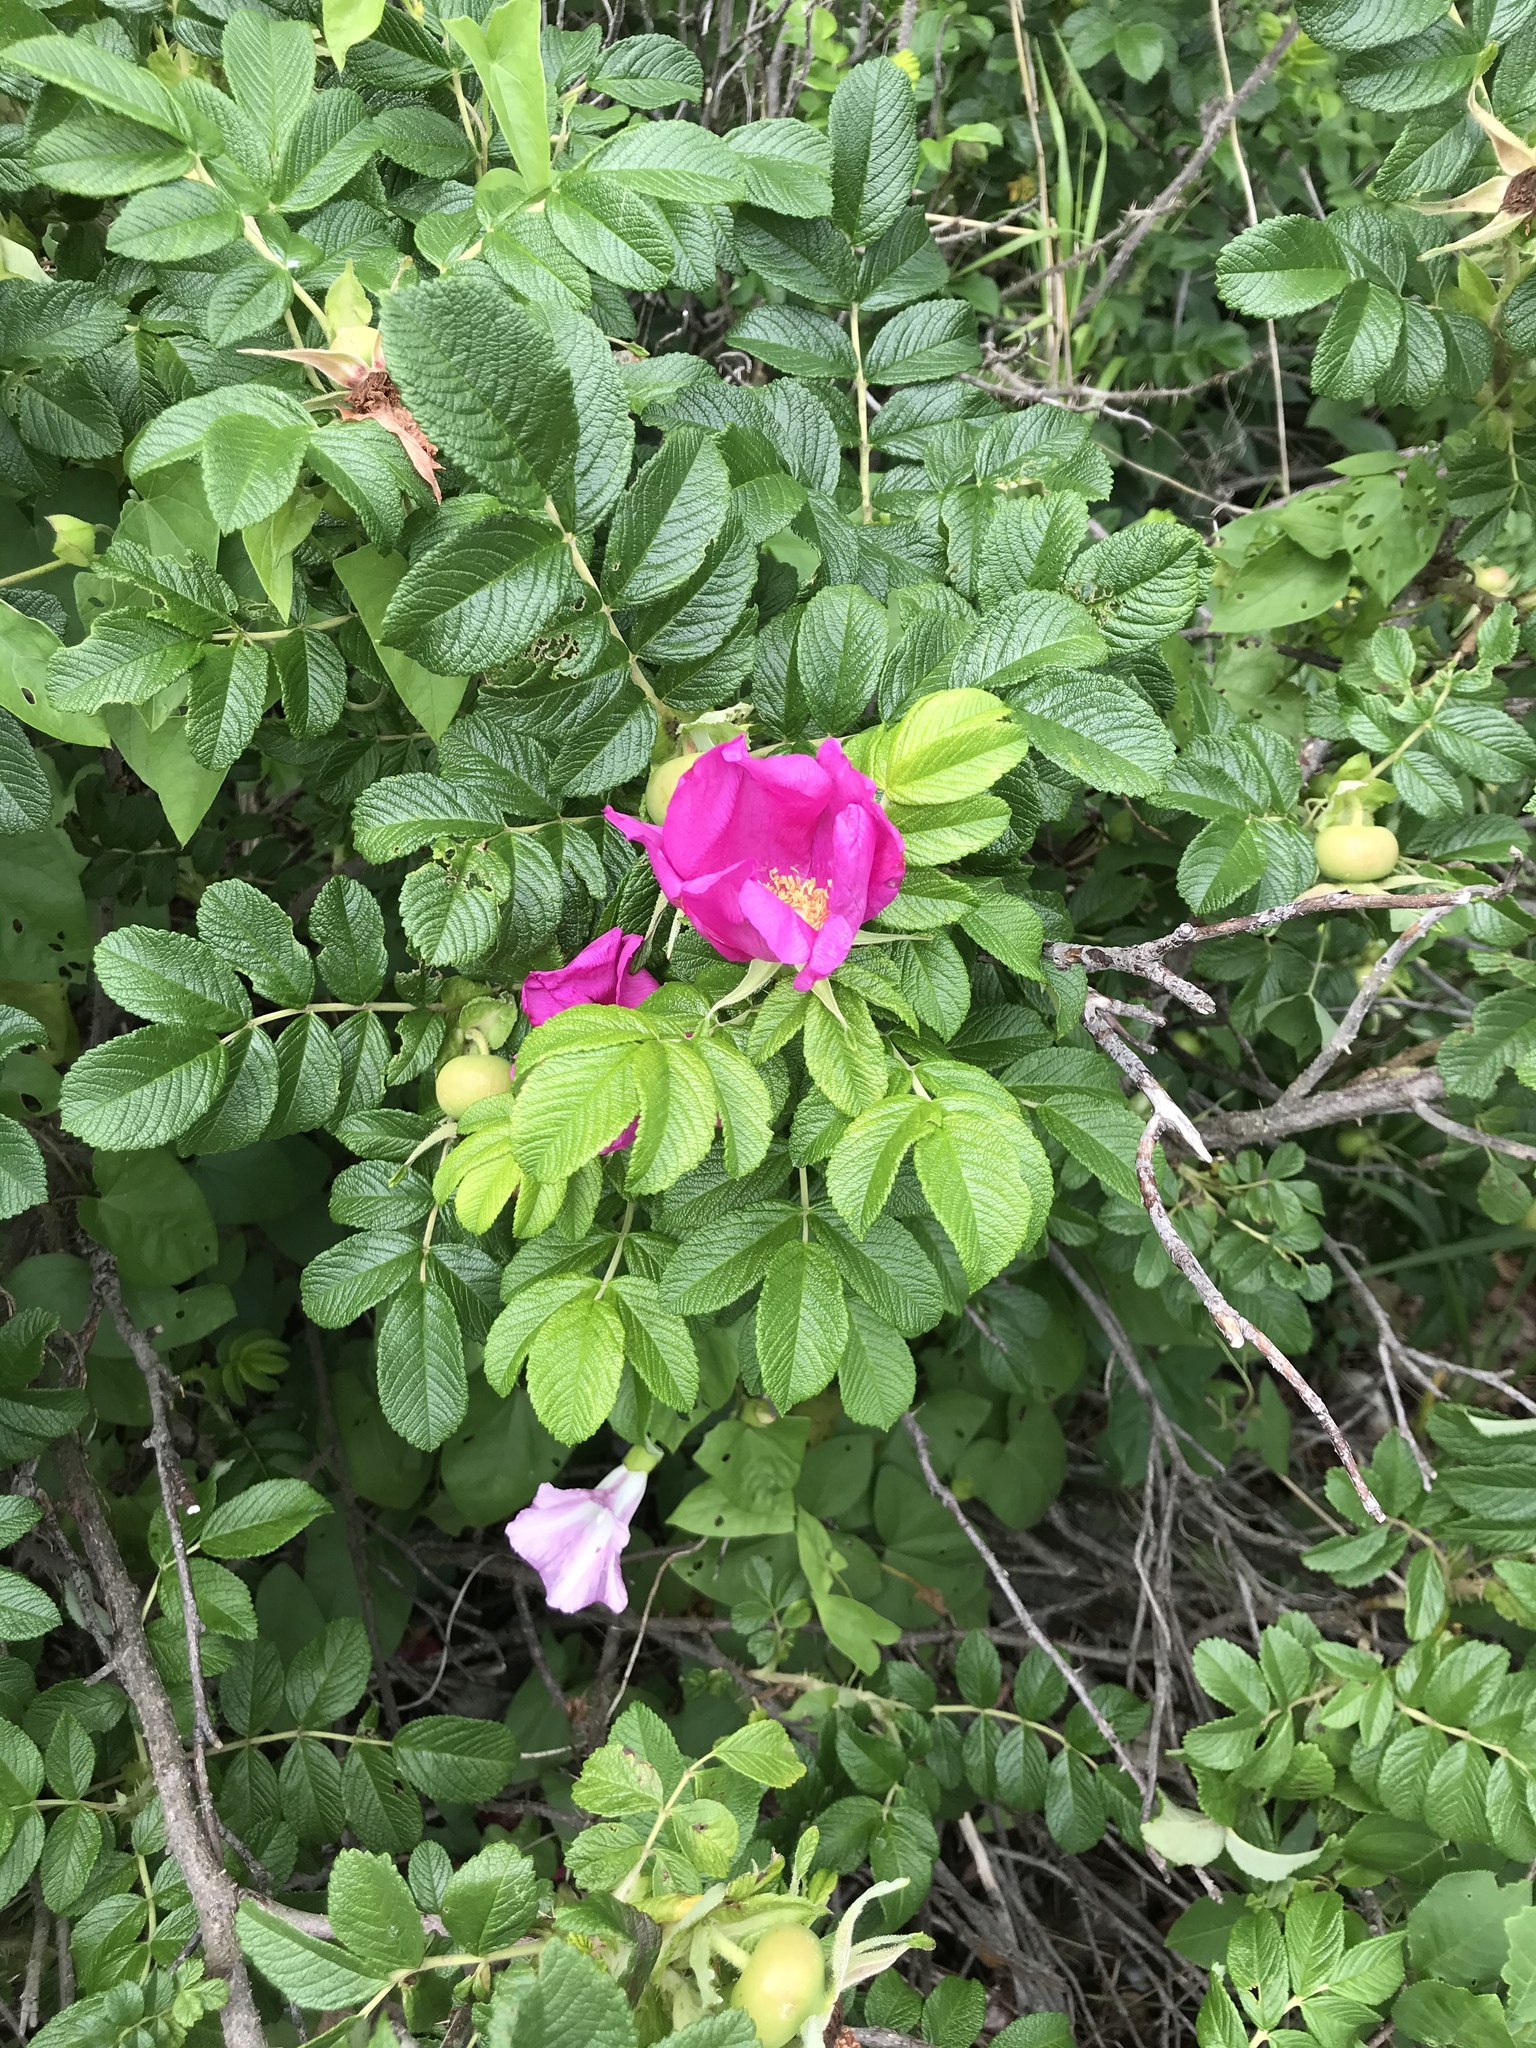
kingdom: Plantae
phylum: Tracheophyta
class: Magnoliopsida
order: Rosales
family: Rosaceae
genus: Rosa
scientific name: Rosa rugosa
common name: Japanese rose
